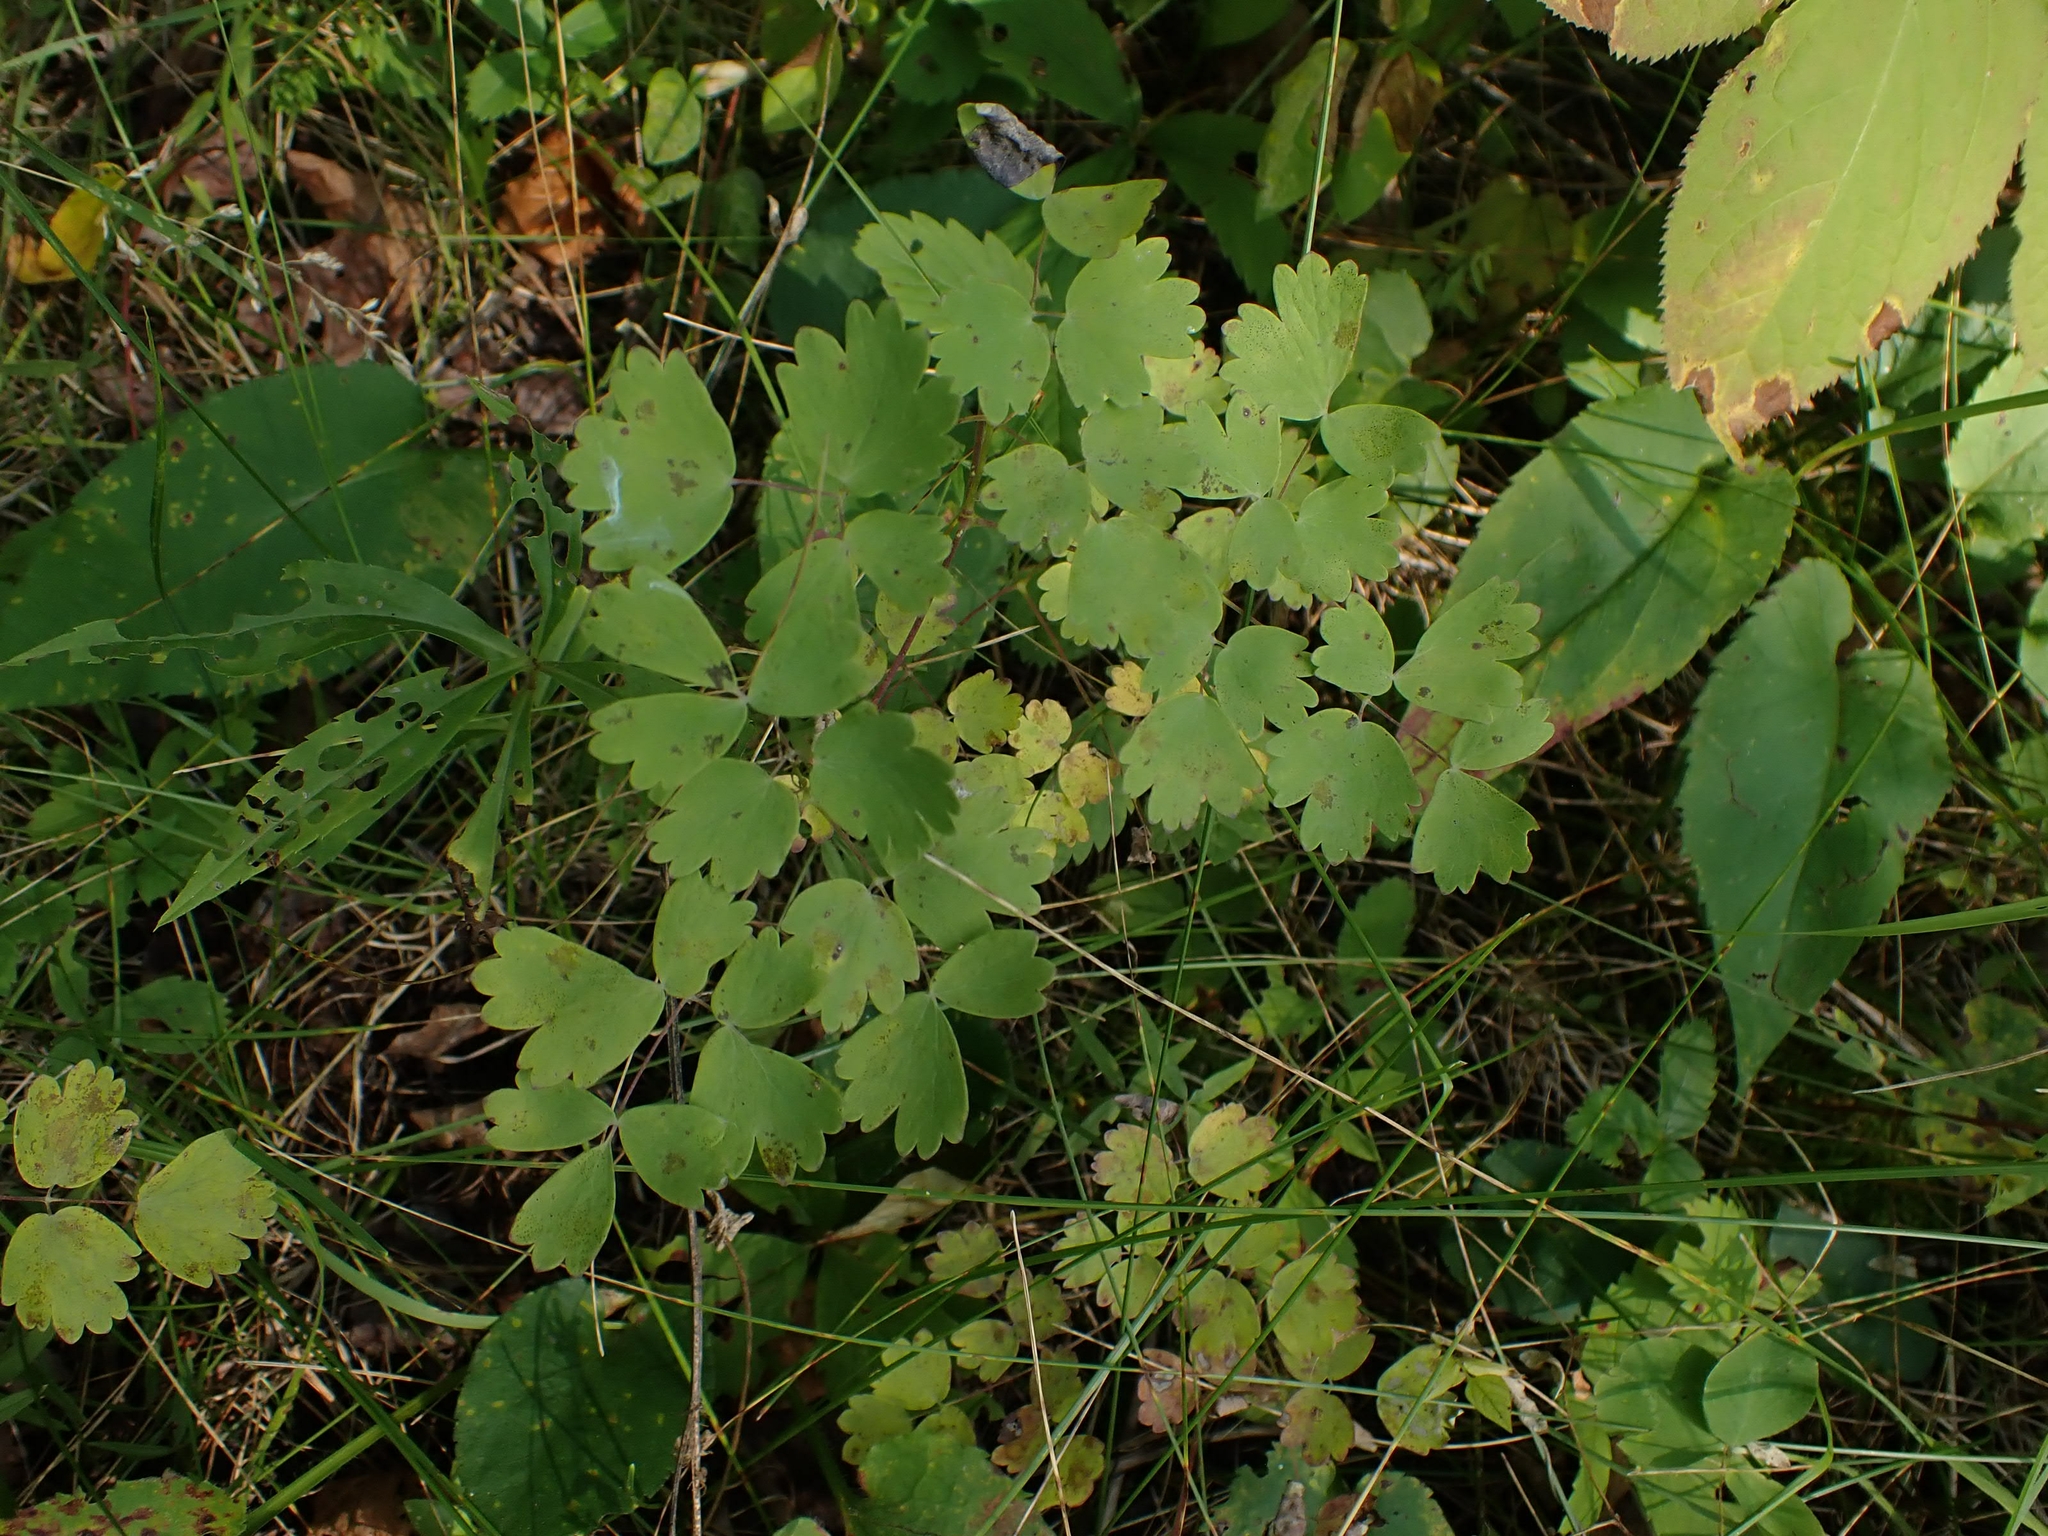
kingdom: Plantae
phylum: Tracheophyta
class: Magnoliopsida
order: Ranunculales
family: Ranunculaceae
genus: Thalictrum
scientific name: Thalictrum venulosum
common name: Early meadow-rue
